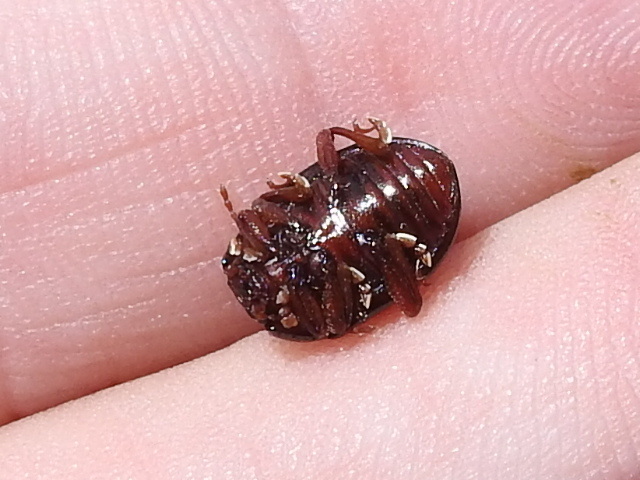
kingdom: Animalia
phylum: Arthropoda
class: Insecta
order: Coleoptera
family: Chrysomelidae
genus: Chrysolina
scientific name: Chrysolina bankii
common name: Leaf beetle
